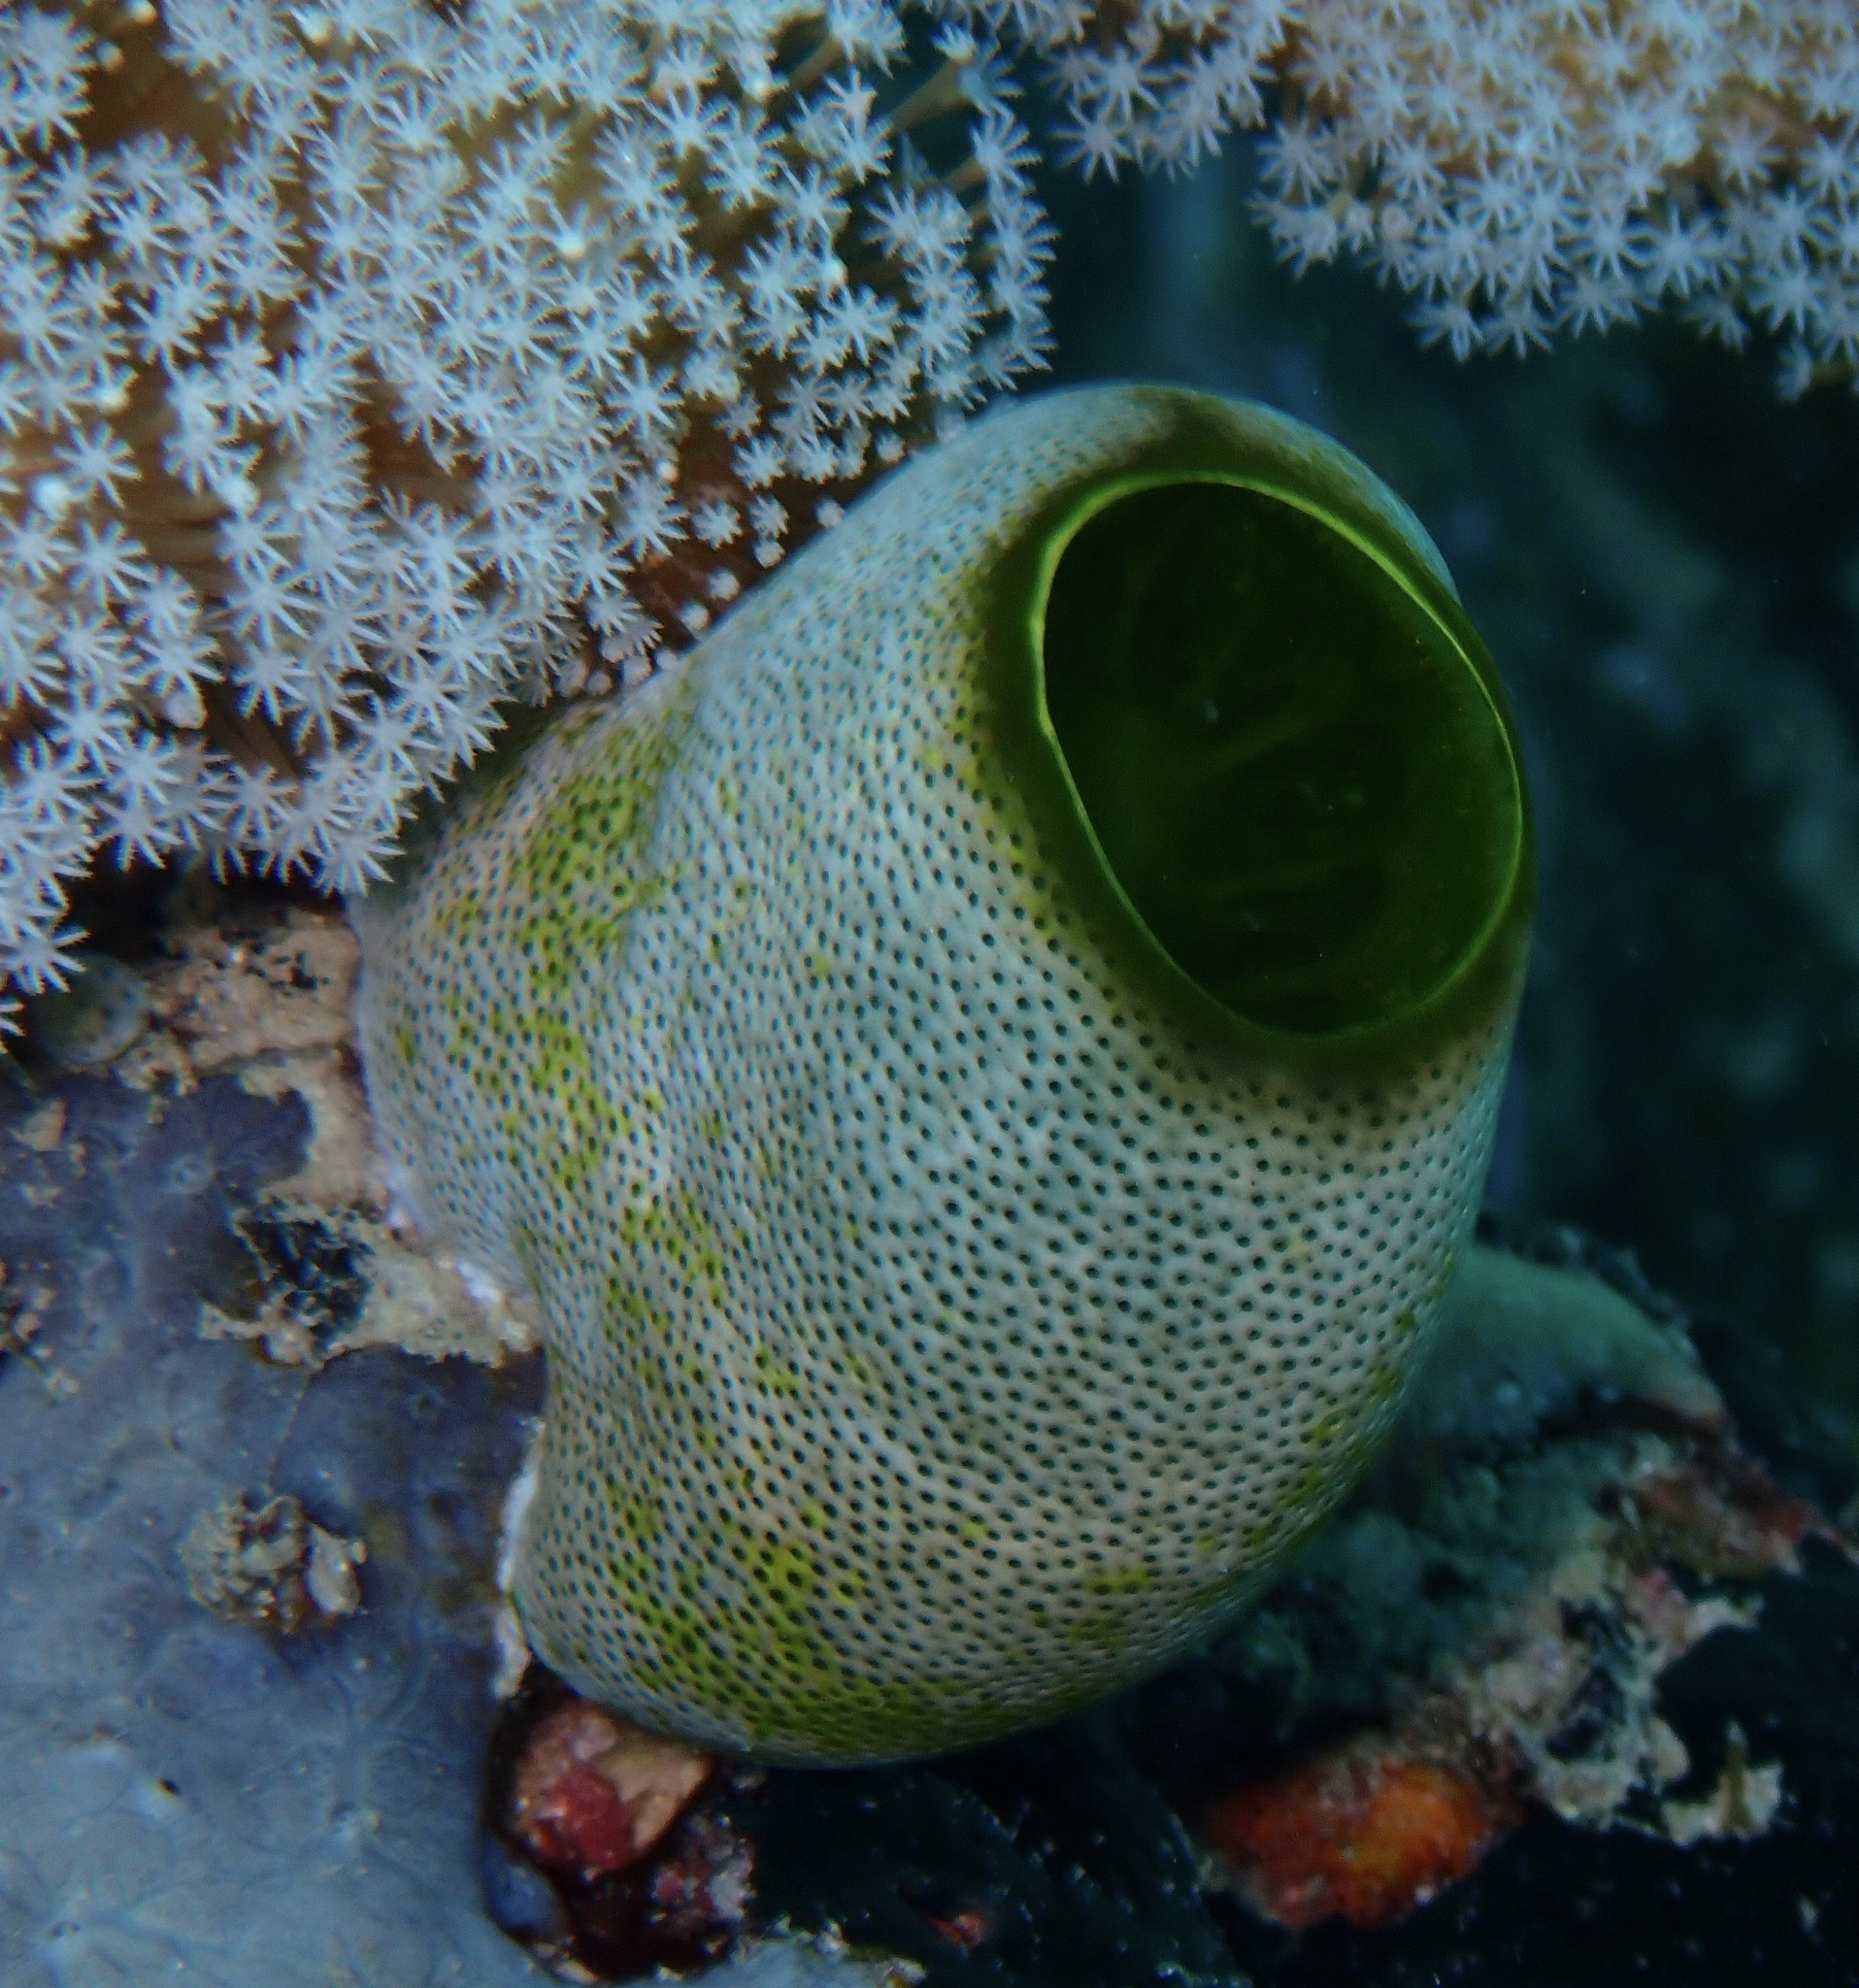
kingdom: Animalia
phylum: Chordata
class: Ascidiacea
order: Aplousobranchia
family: Didemnidae
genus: Didemnum
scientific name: Didemnum molle
